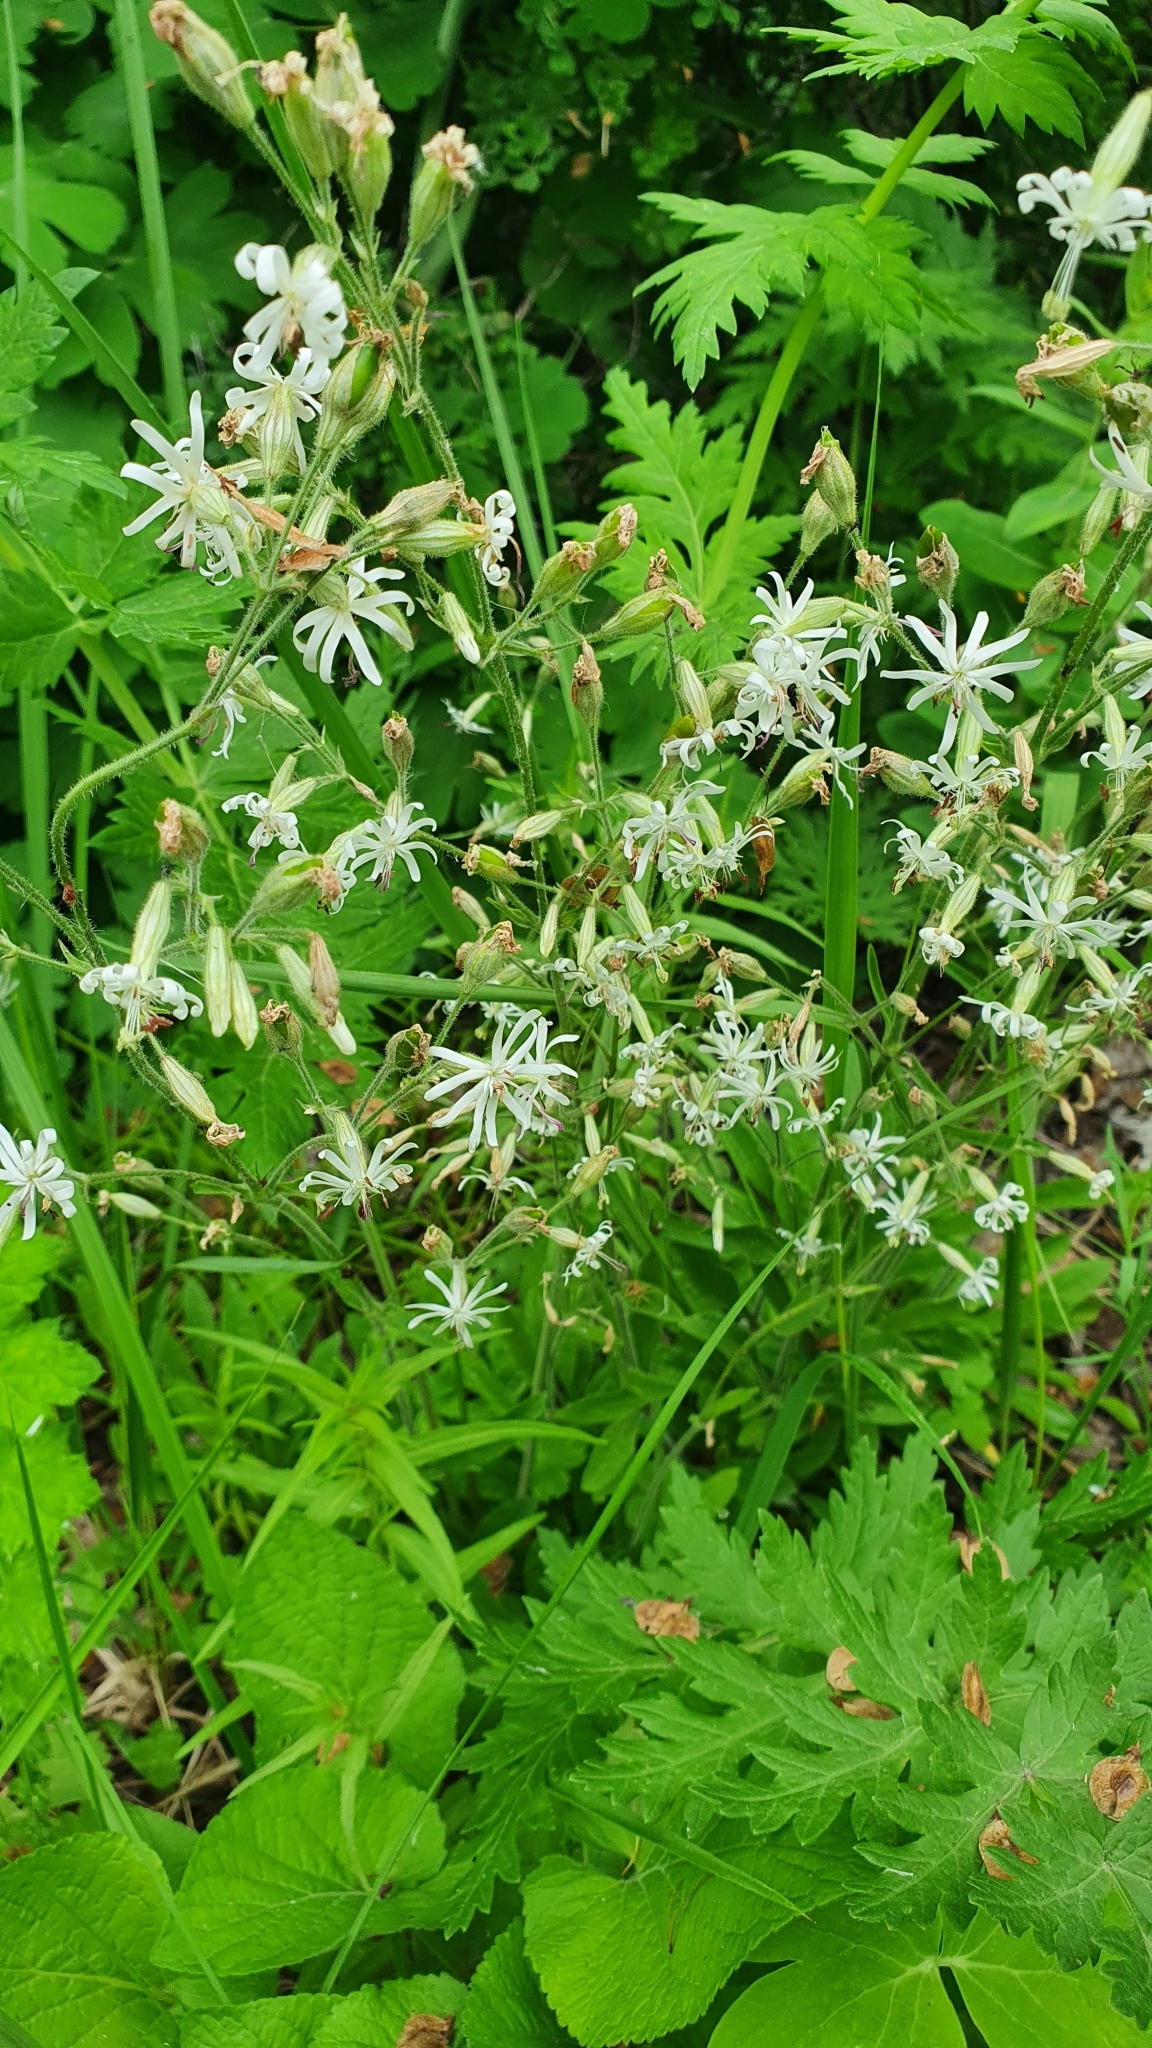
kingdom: Plantae
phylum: Tracheophyta
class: Magnoliopsida
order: Caryophyllales
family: Caryophyllaceae
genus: Silene
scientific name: Silene nutans
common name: Nottingham catchfly
